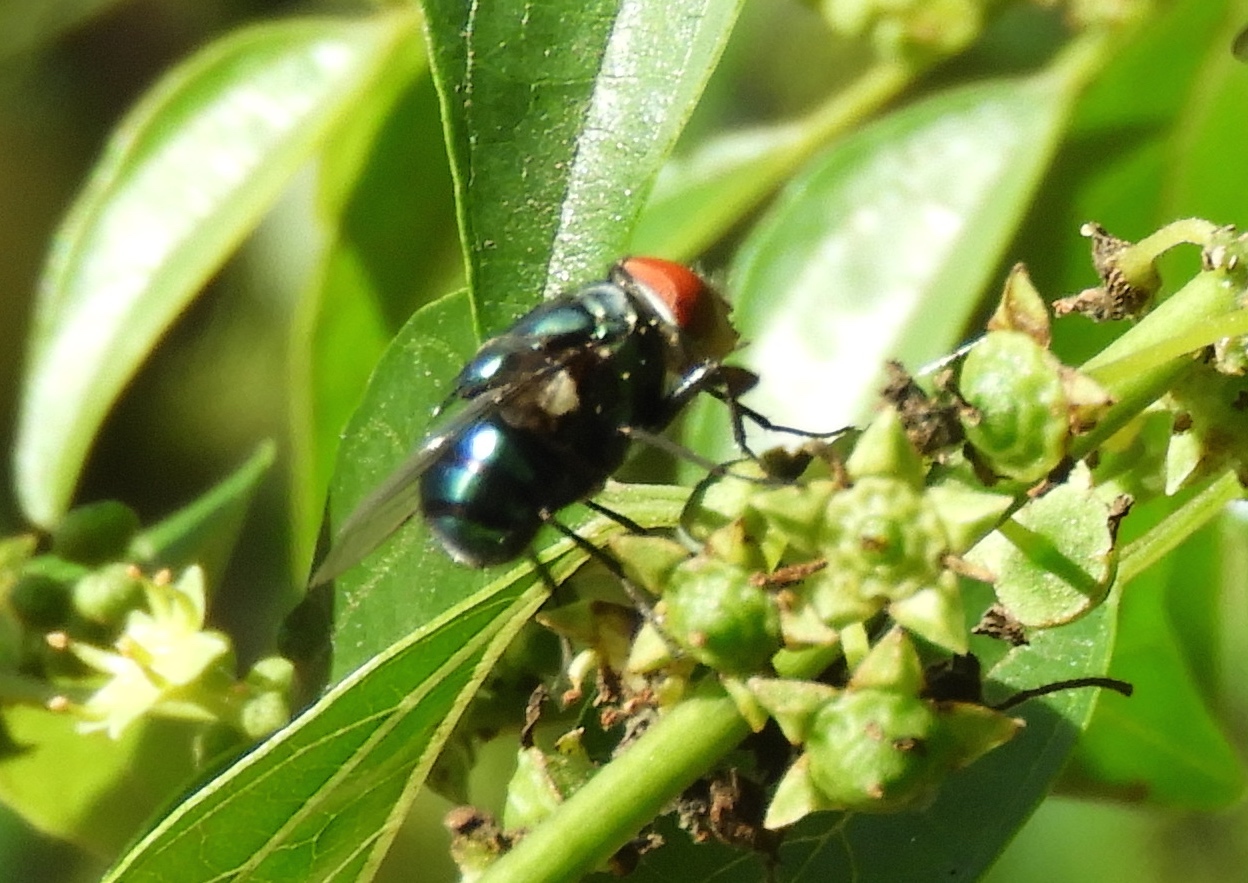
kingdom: Animalia
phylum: Arthropoda
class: Insecta
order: Diptera
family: Calliphoridae
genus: Chrysomya
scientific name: Chrysomya megacephala
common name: Blow fly
